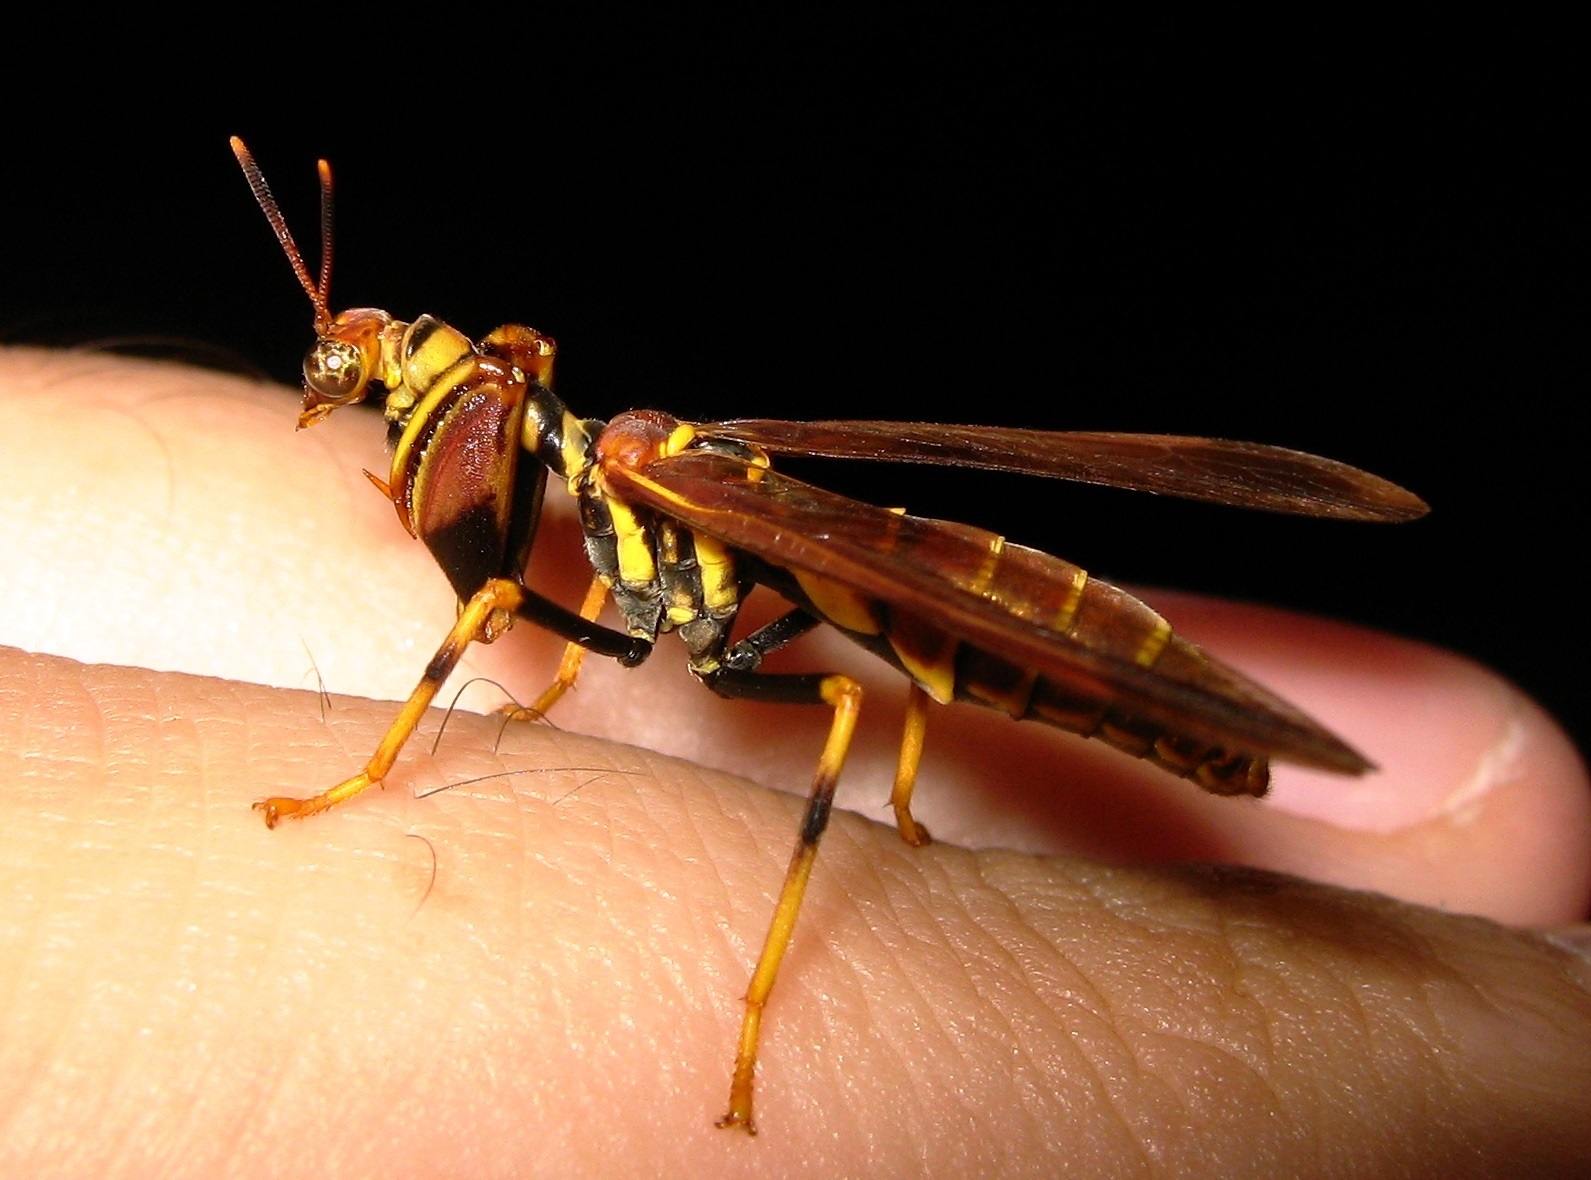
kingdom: Animalia
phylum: Arthropoda
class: Insecta
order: Neuroptera
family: Mantispidae
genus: Climaciella
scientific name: Climaciella brunnea
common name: Brown wasp mantidfly
